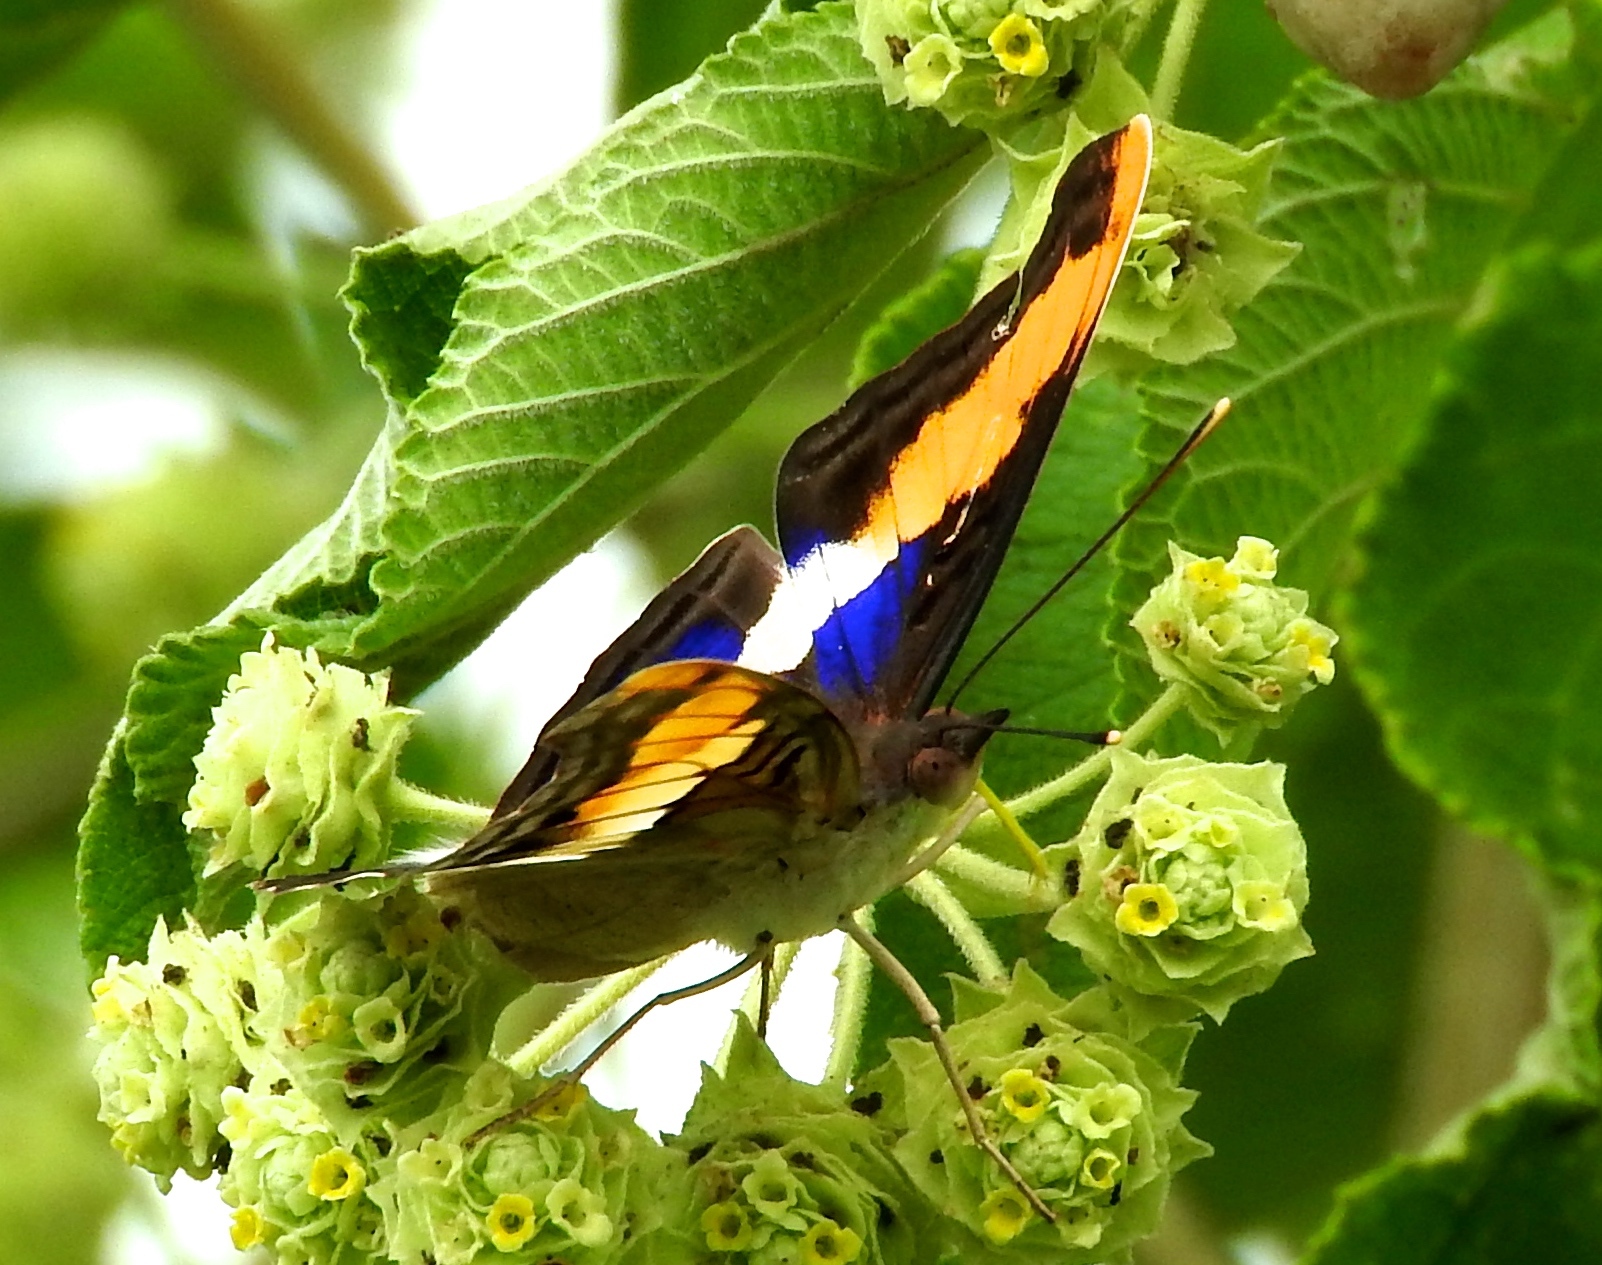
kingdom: Animalia
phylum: Arthropoda
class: Insecta
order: Lepidoptera
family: Nymphalidae
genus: Doxocopa
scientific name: Doxocopa laure
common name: Silver emperor
